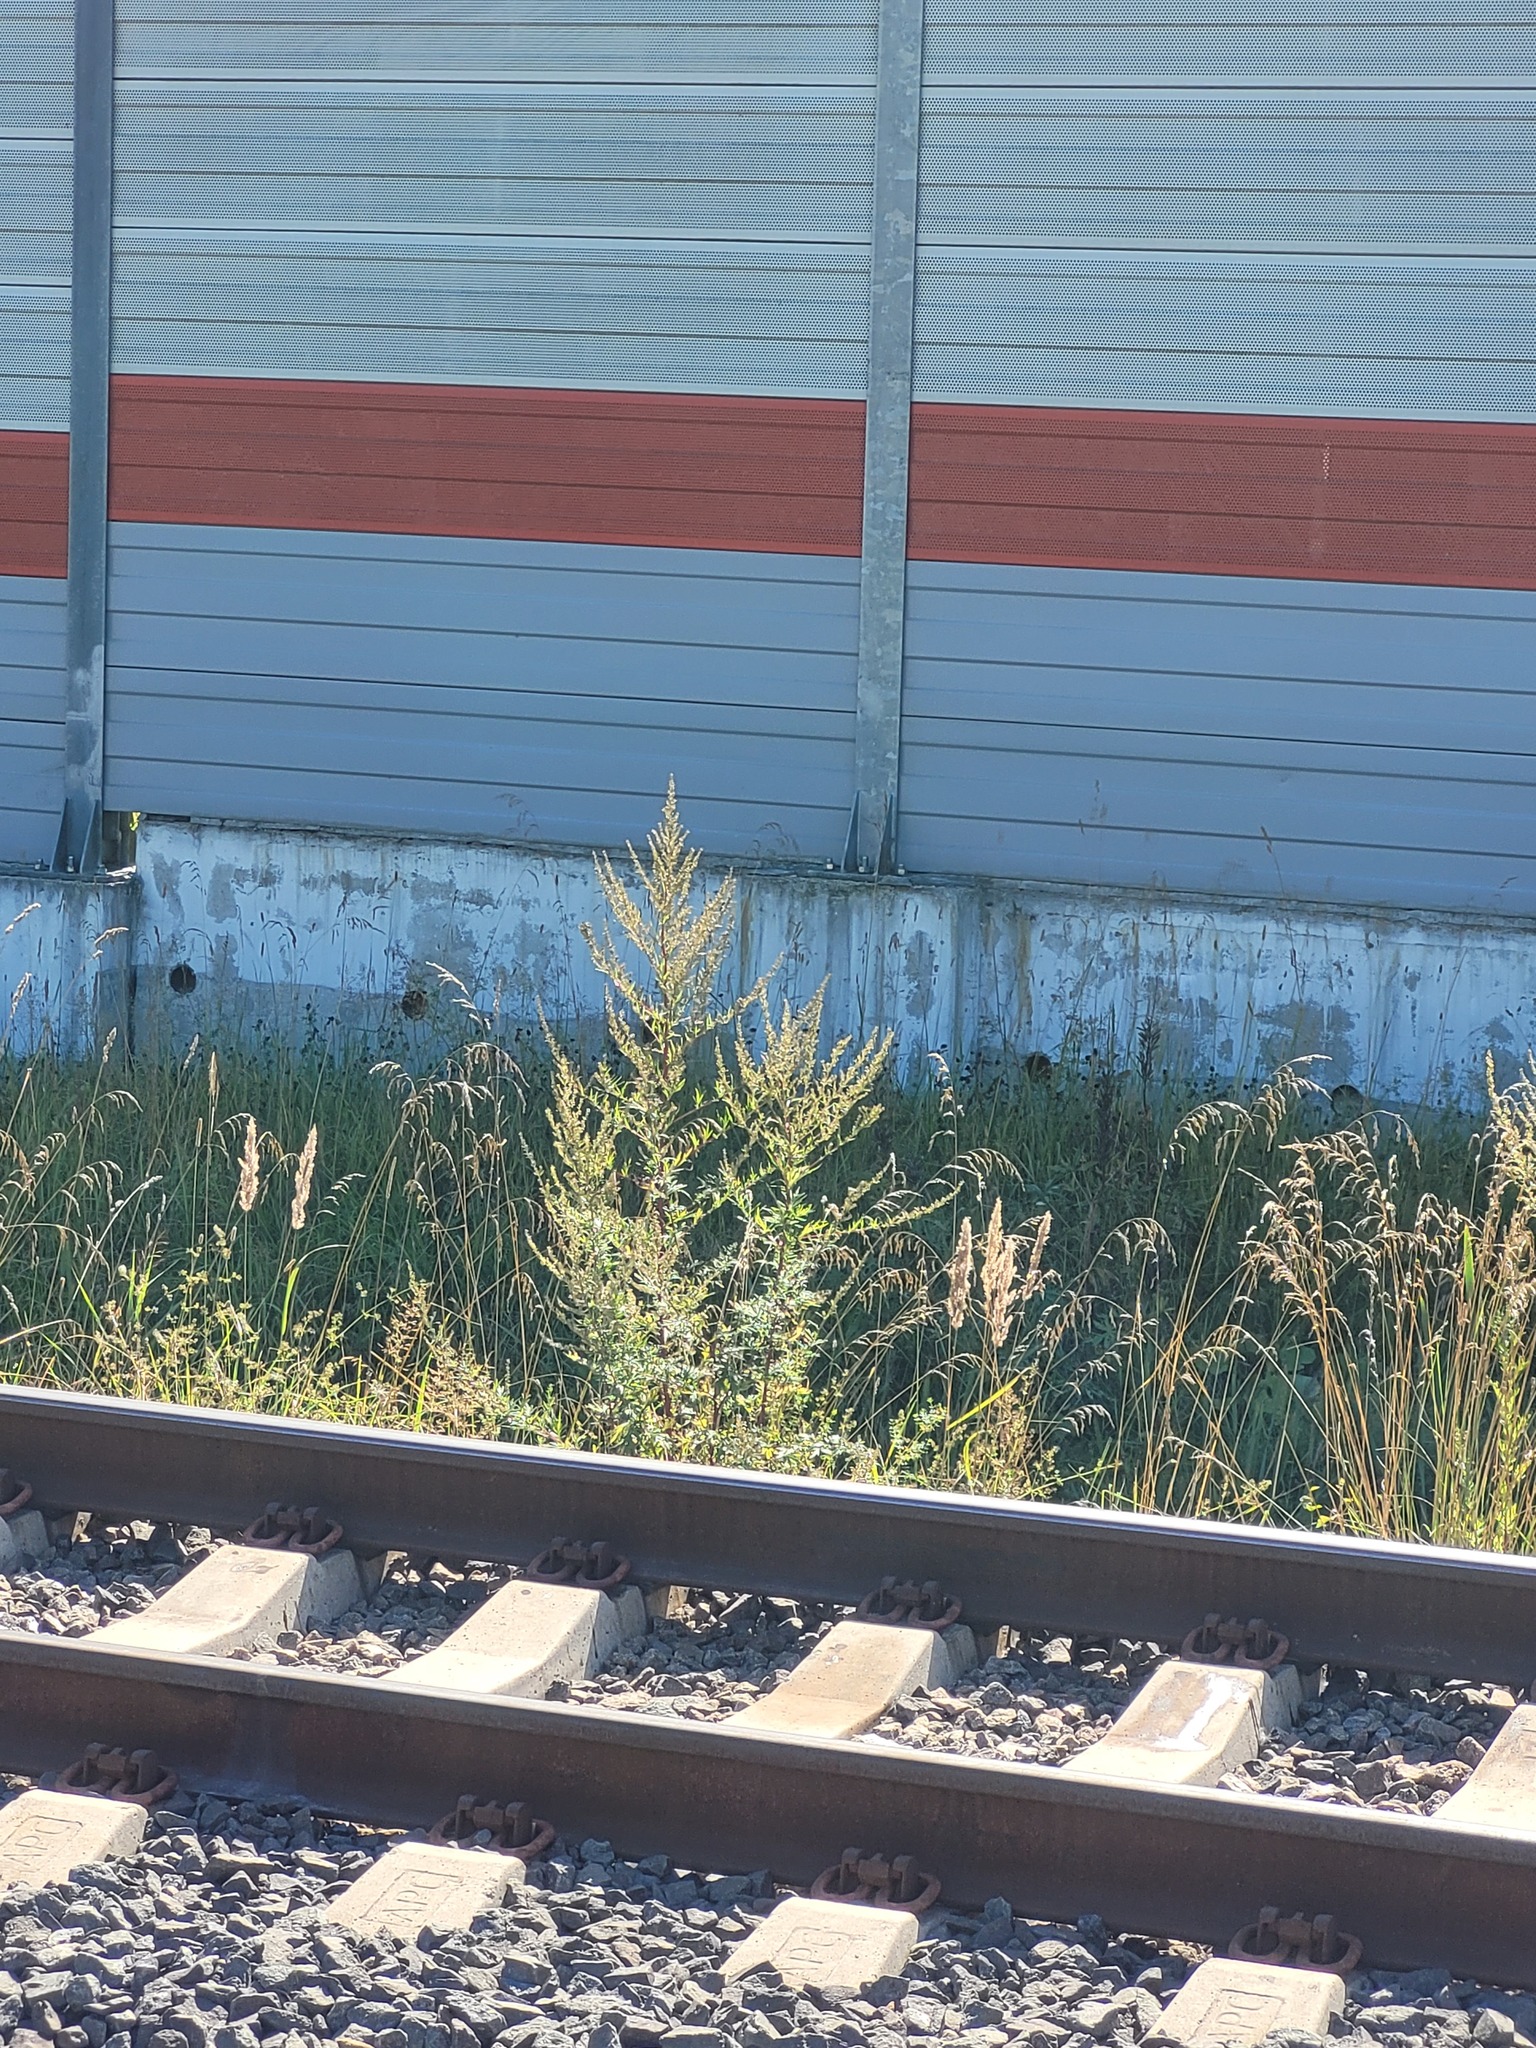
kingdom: Plantae
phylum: Tracheophyta
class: Magnoliopsida
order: Asterales
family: Asteraceae
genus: Artemisia
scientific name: Artemisia vulgaris
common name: Mugwort
